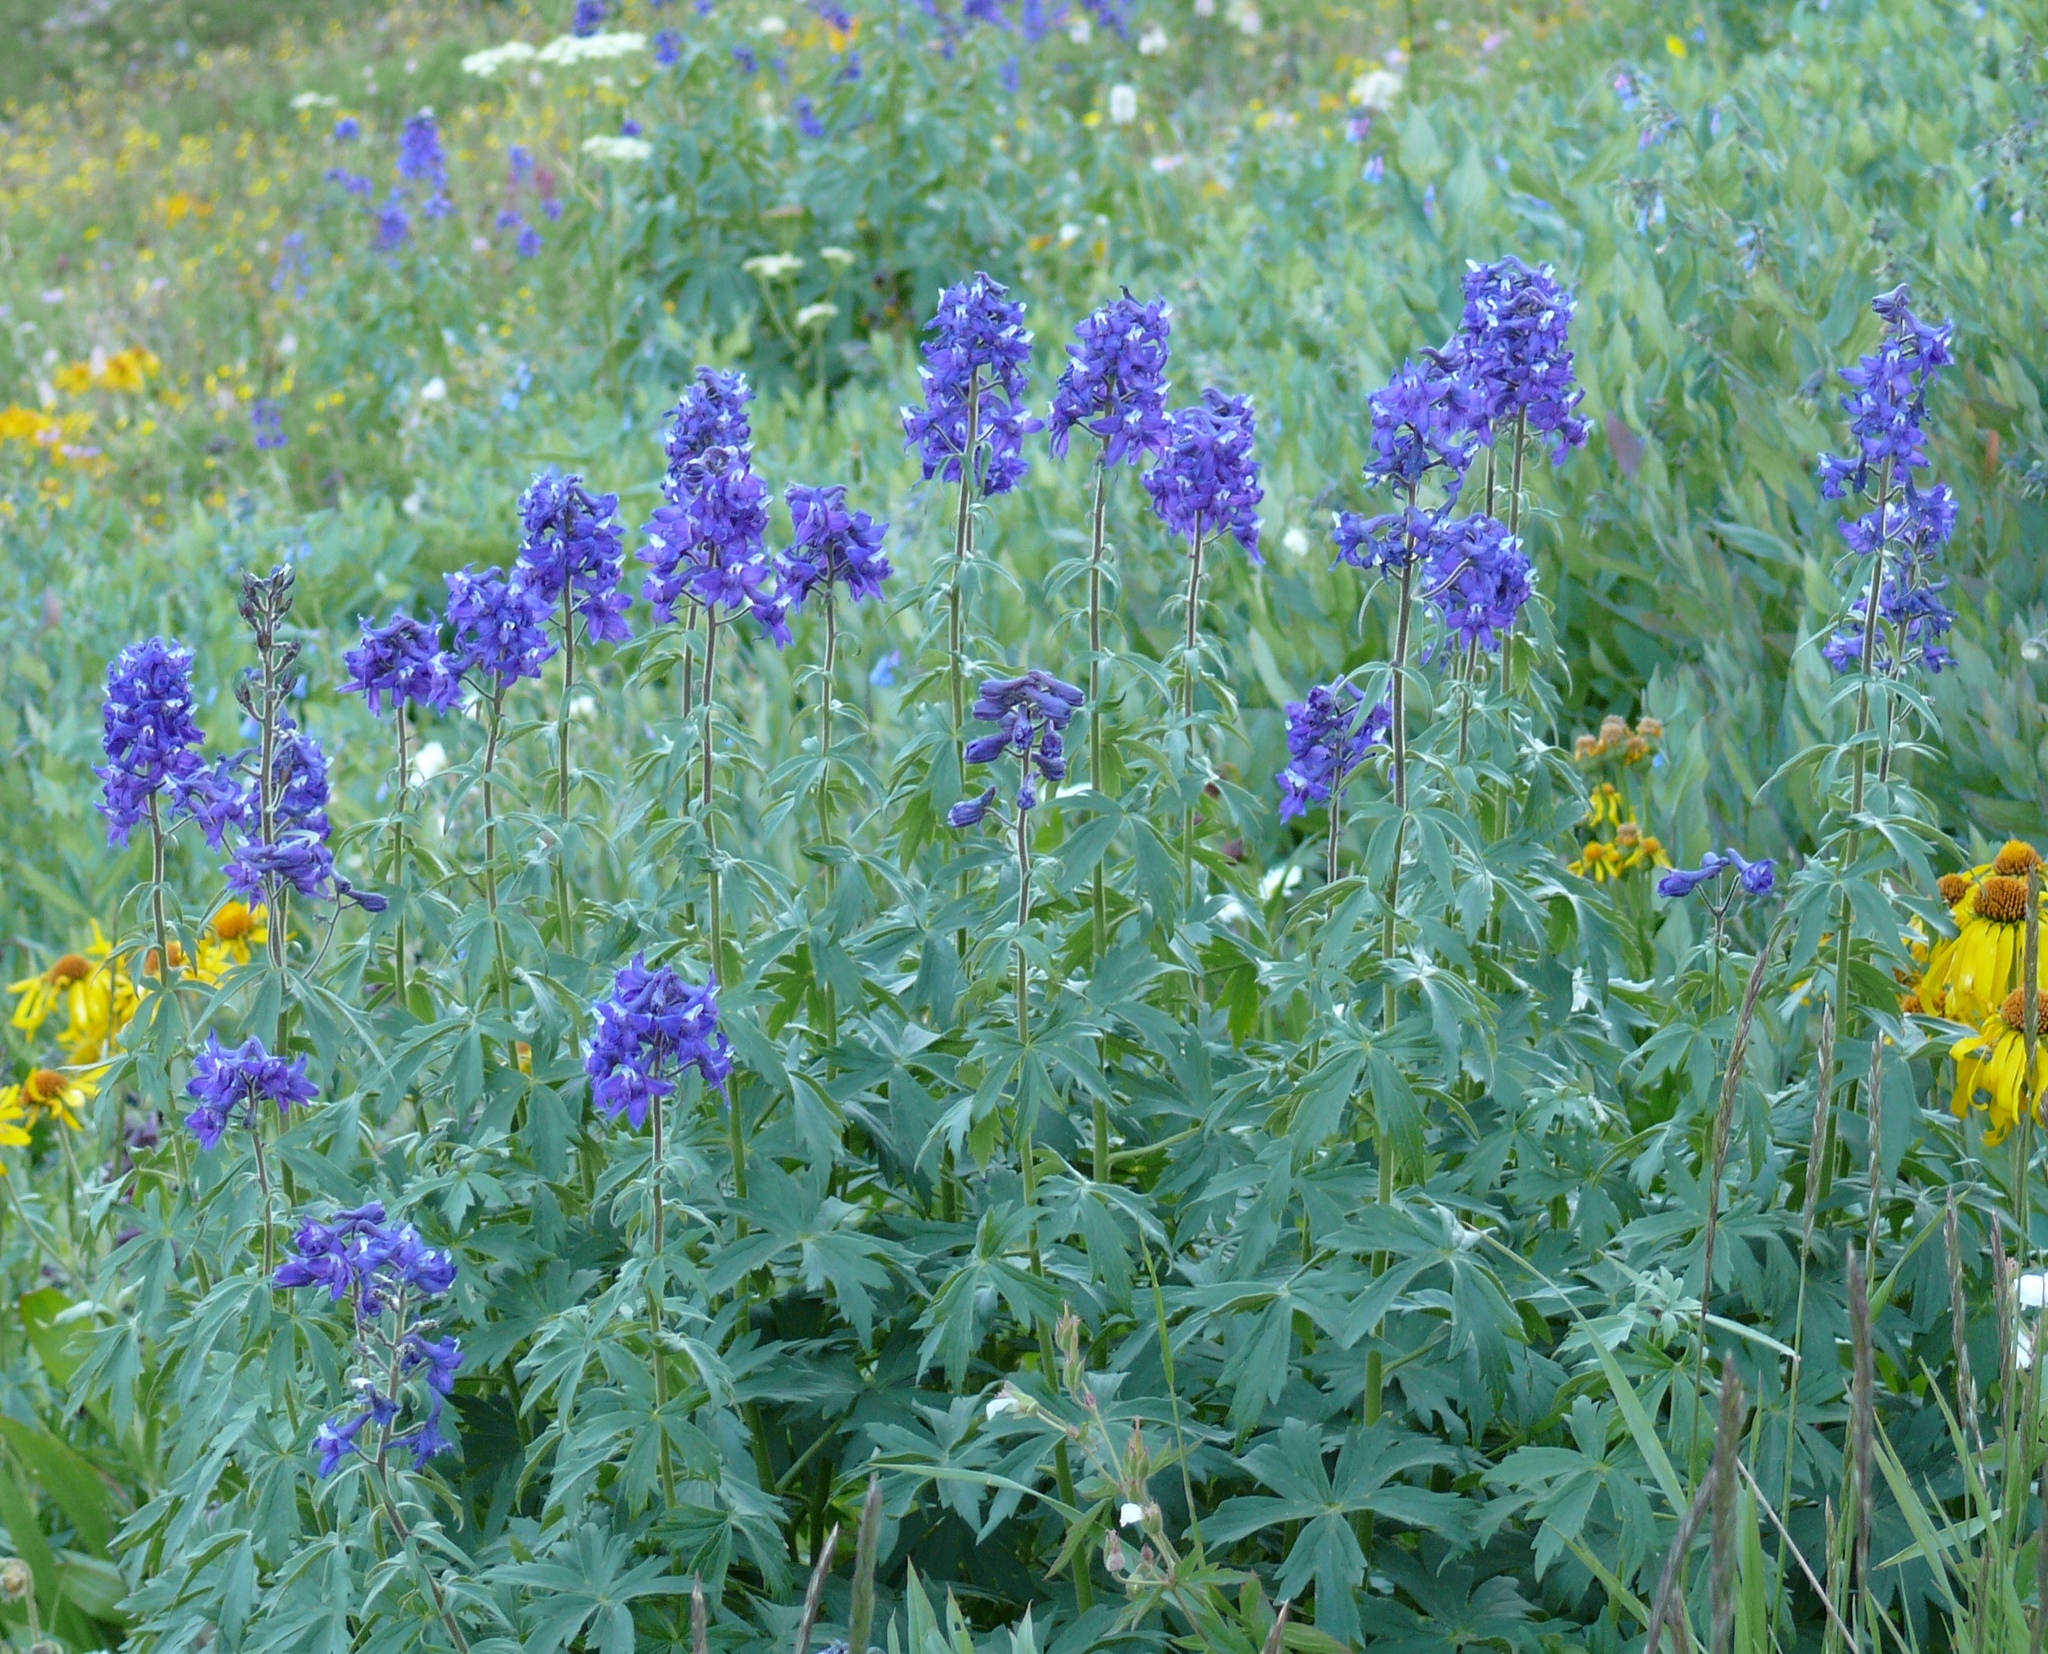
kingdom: Plantae
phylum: Tracheophyta
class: Magnoliopsida
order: Ranunculales
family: Ranunculaceae
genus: Delphinium
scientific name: Delphinium barbeyi
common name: Subalpine larkspur
